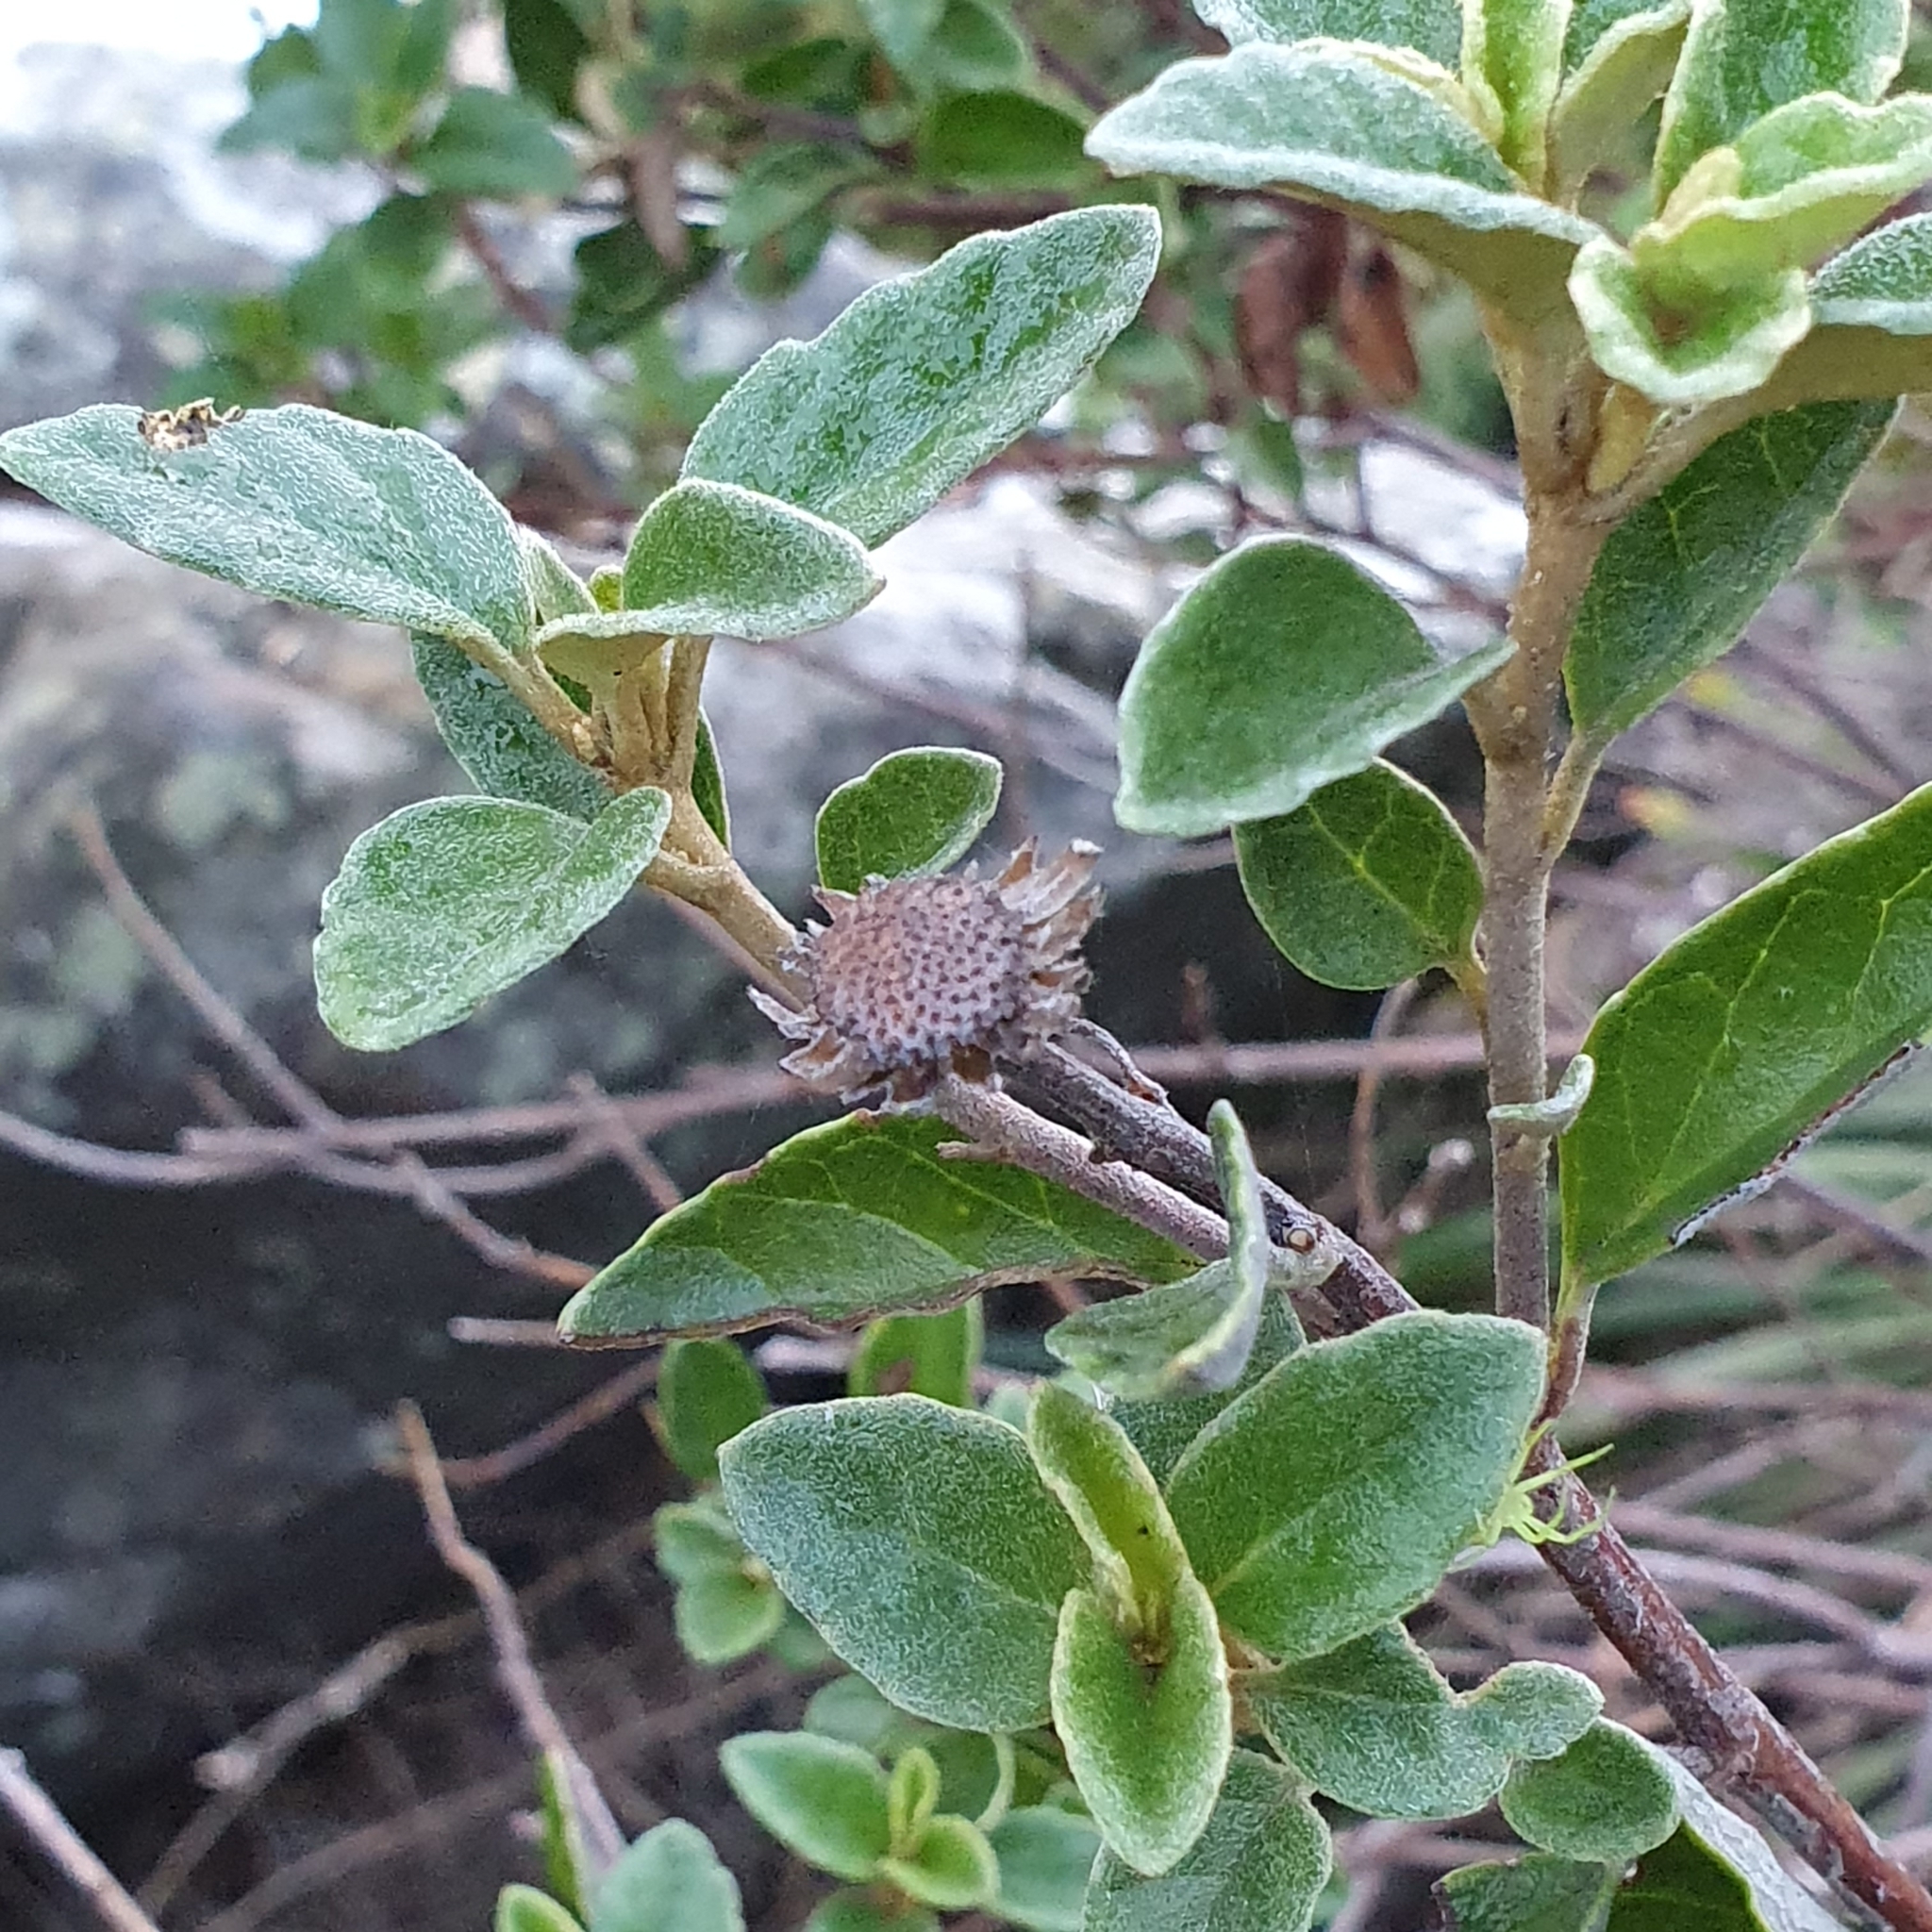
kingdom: Plantae
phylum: Tracheophyta
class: Magnoliopsida
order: Asterales
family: Asteraceae
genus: Olearia
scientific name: Olearia tomentosa
